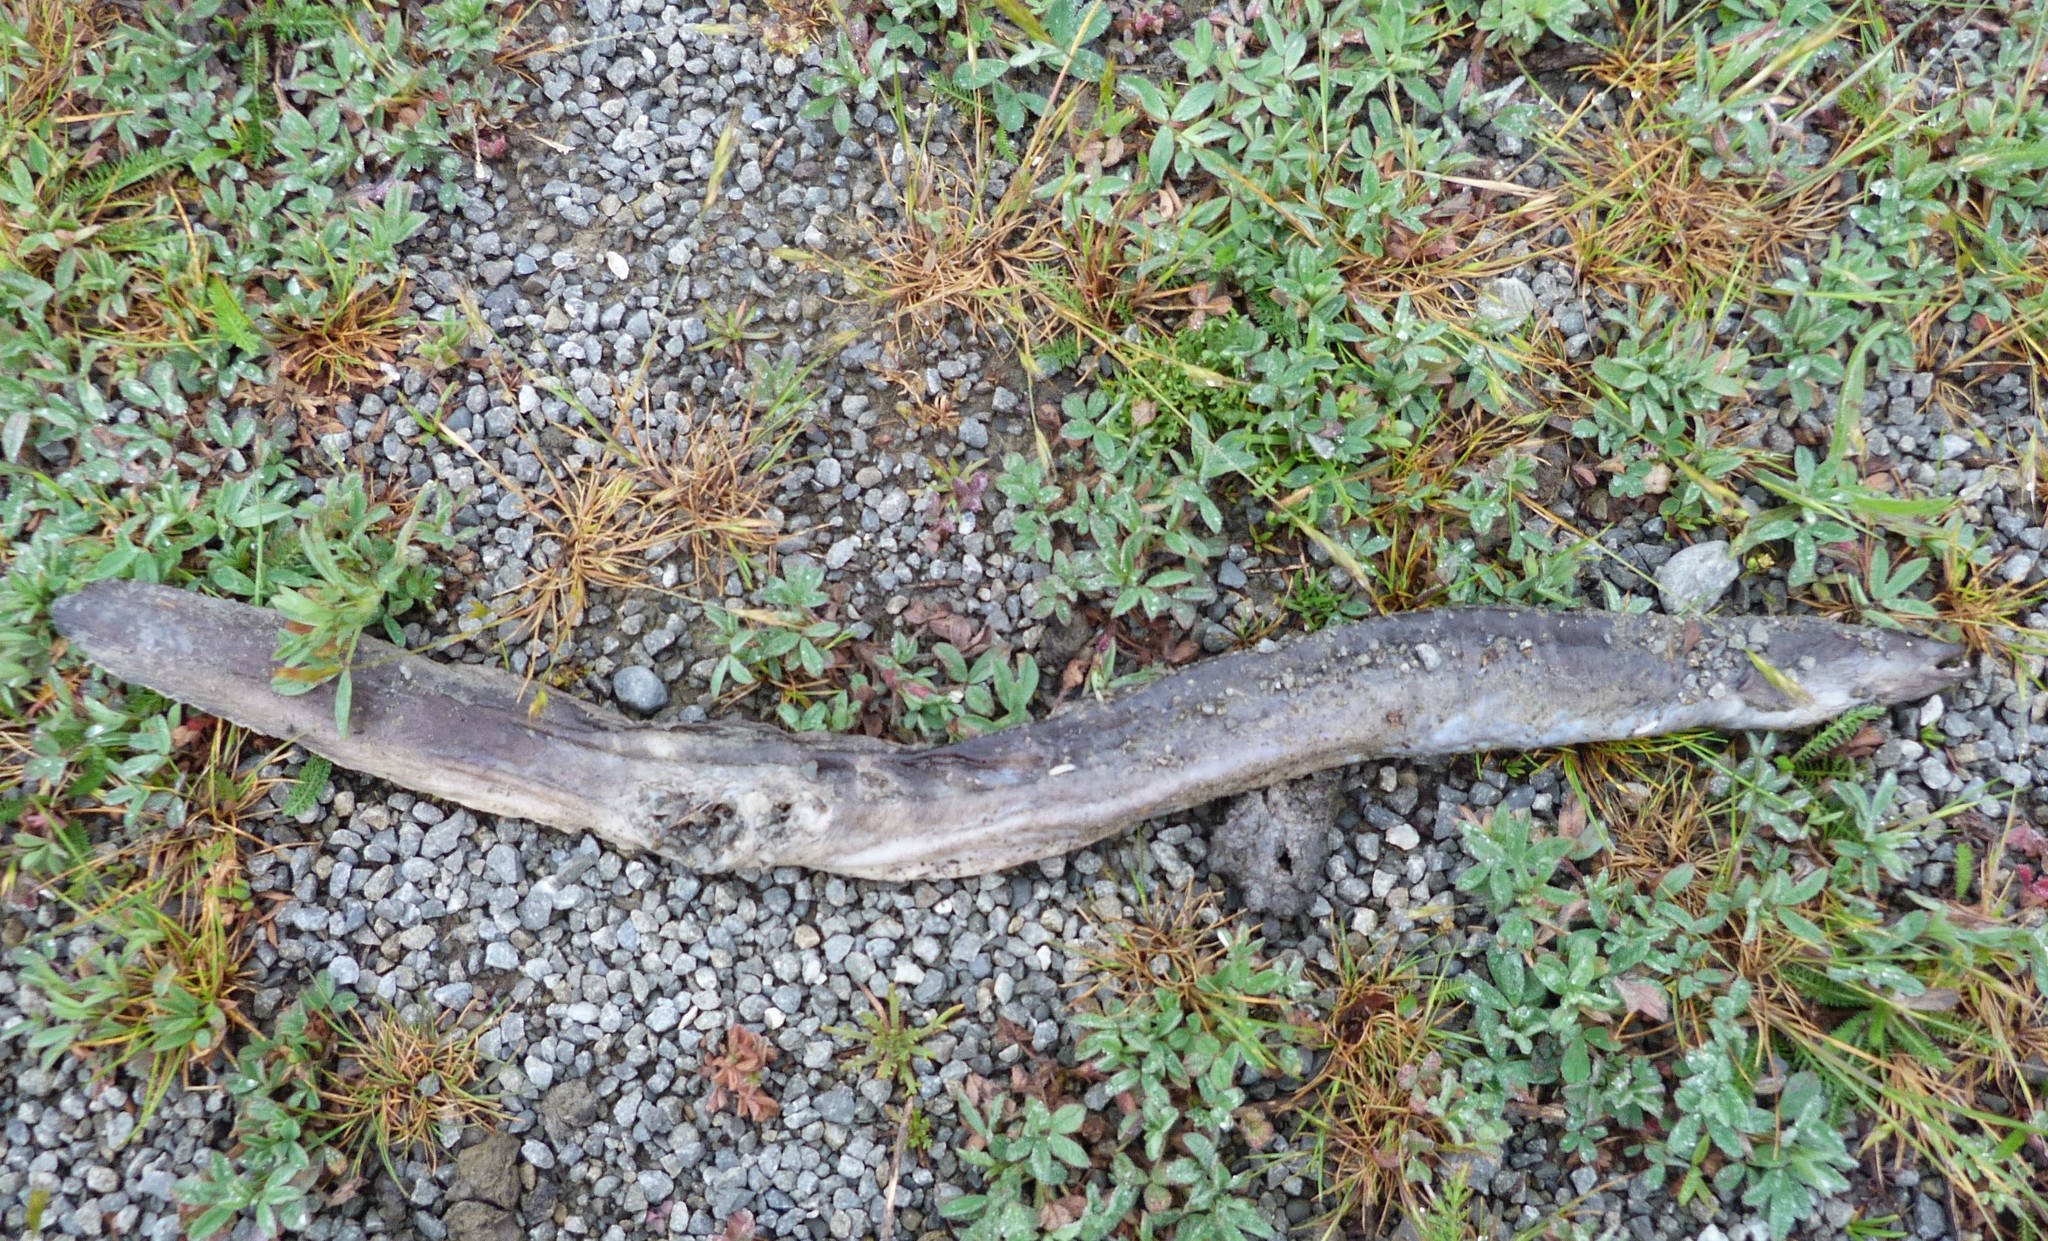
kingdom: Animalia
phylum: Chordata
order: Anguilliformes
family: Anguillidae
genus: Anguilla
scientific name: Anguilla australis
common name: Shortfin eel
